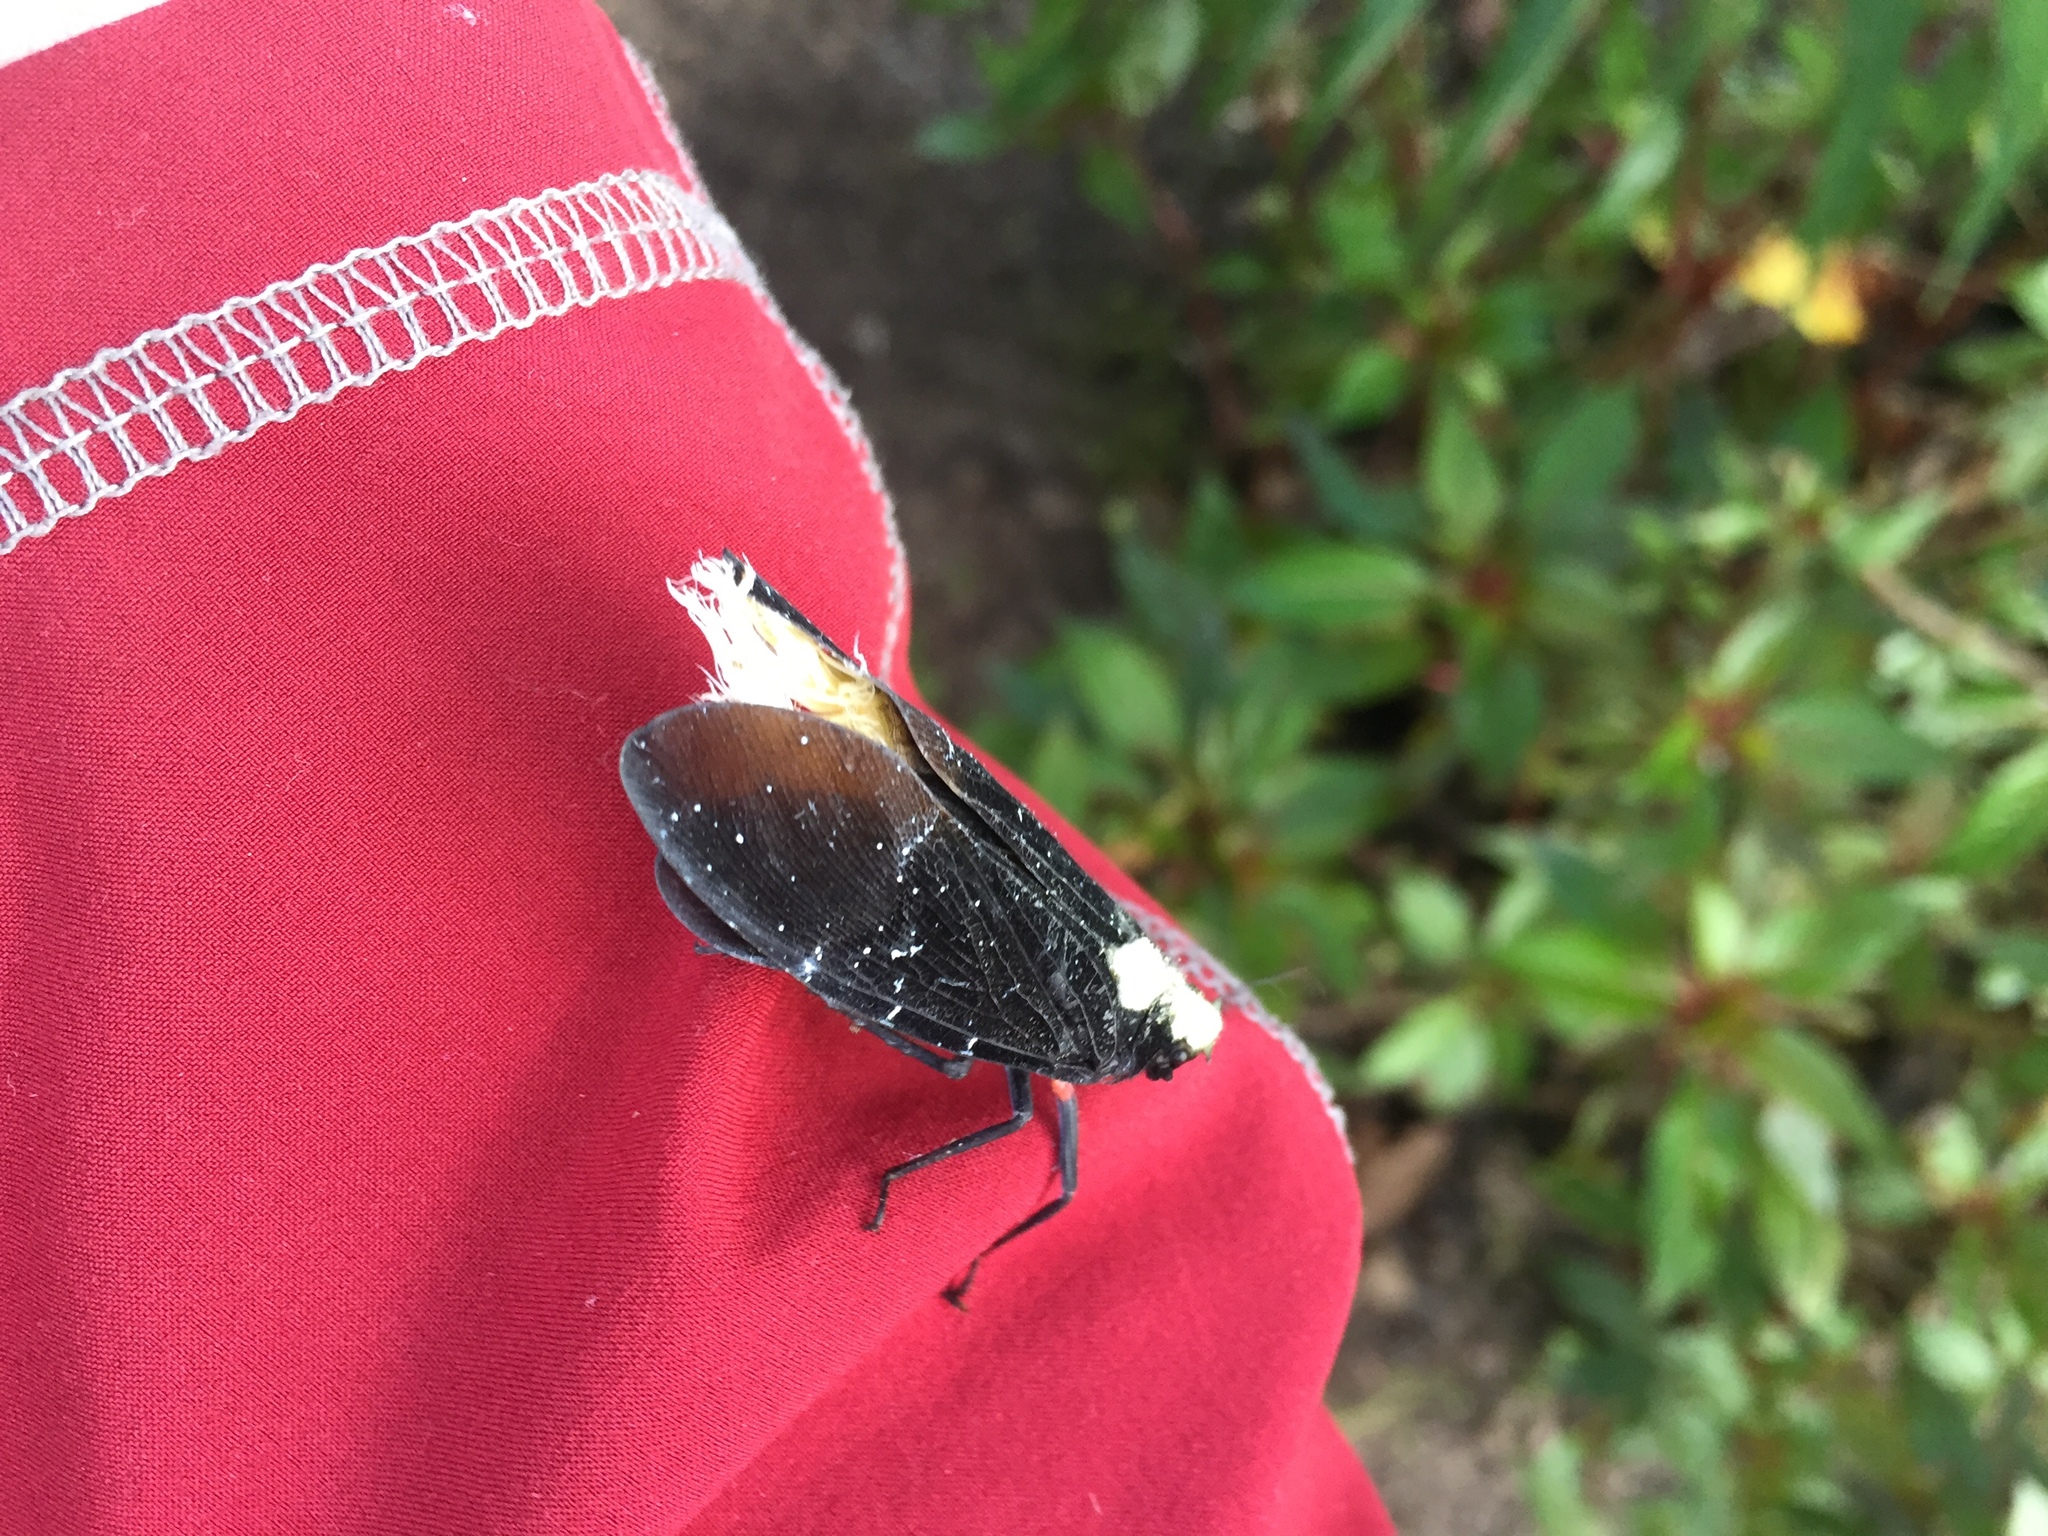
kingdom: Animalia
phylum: Arthropoda
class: Insecta
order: Hemiptera
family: Fulgoridae
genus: Menenia
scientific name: Menenia terebrifera
